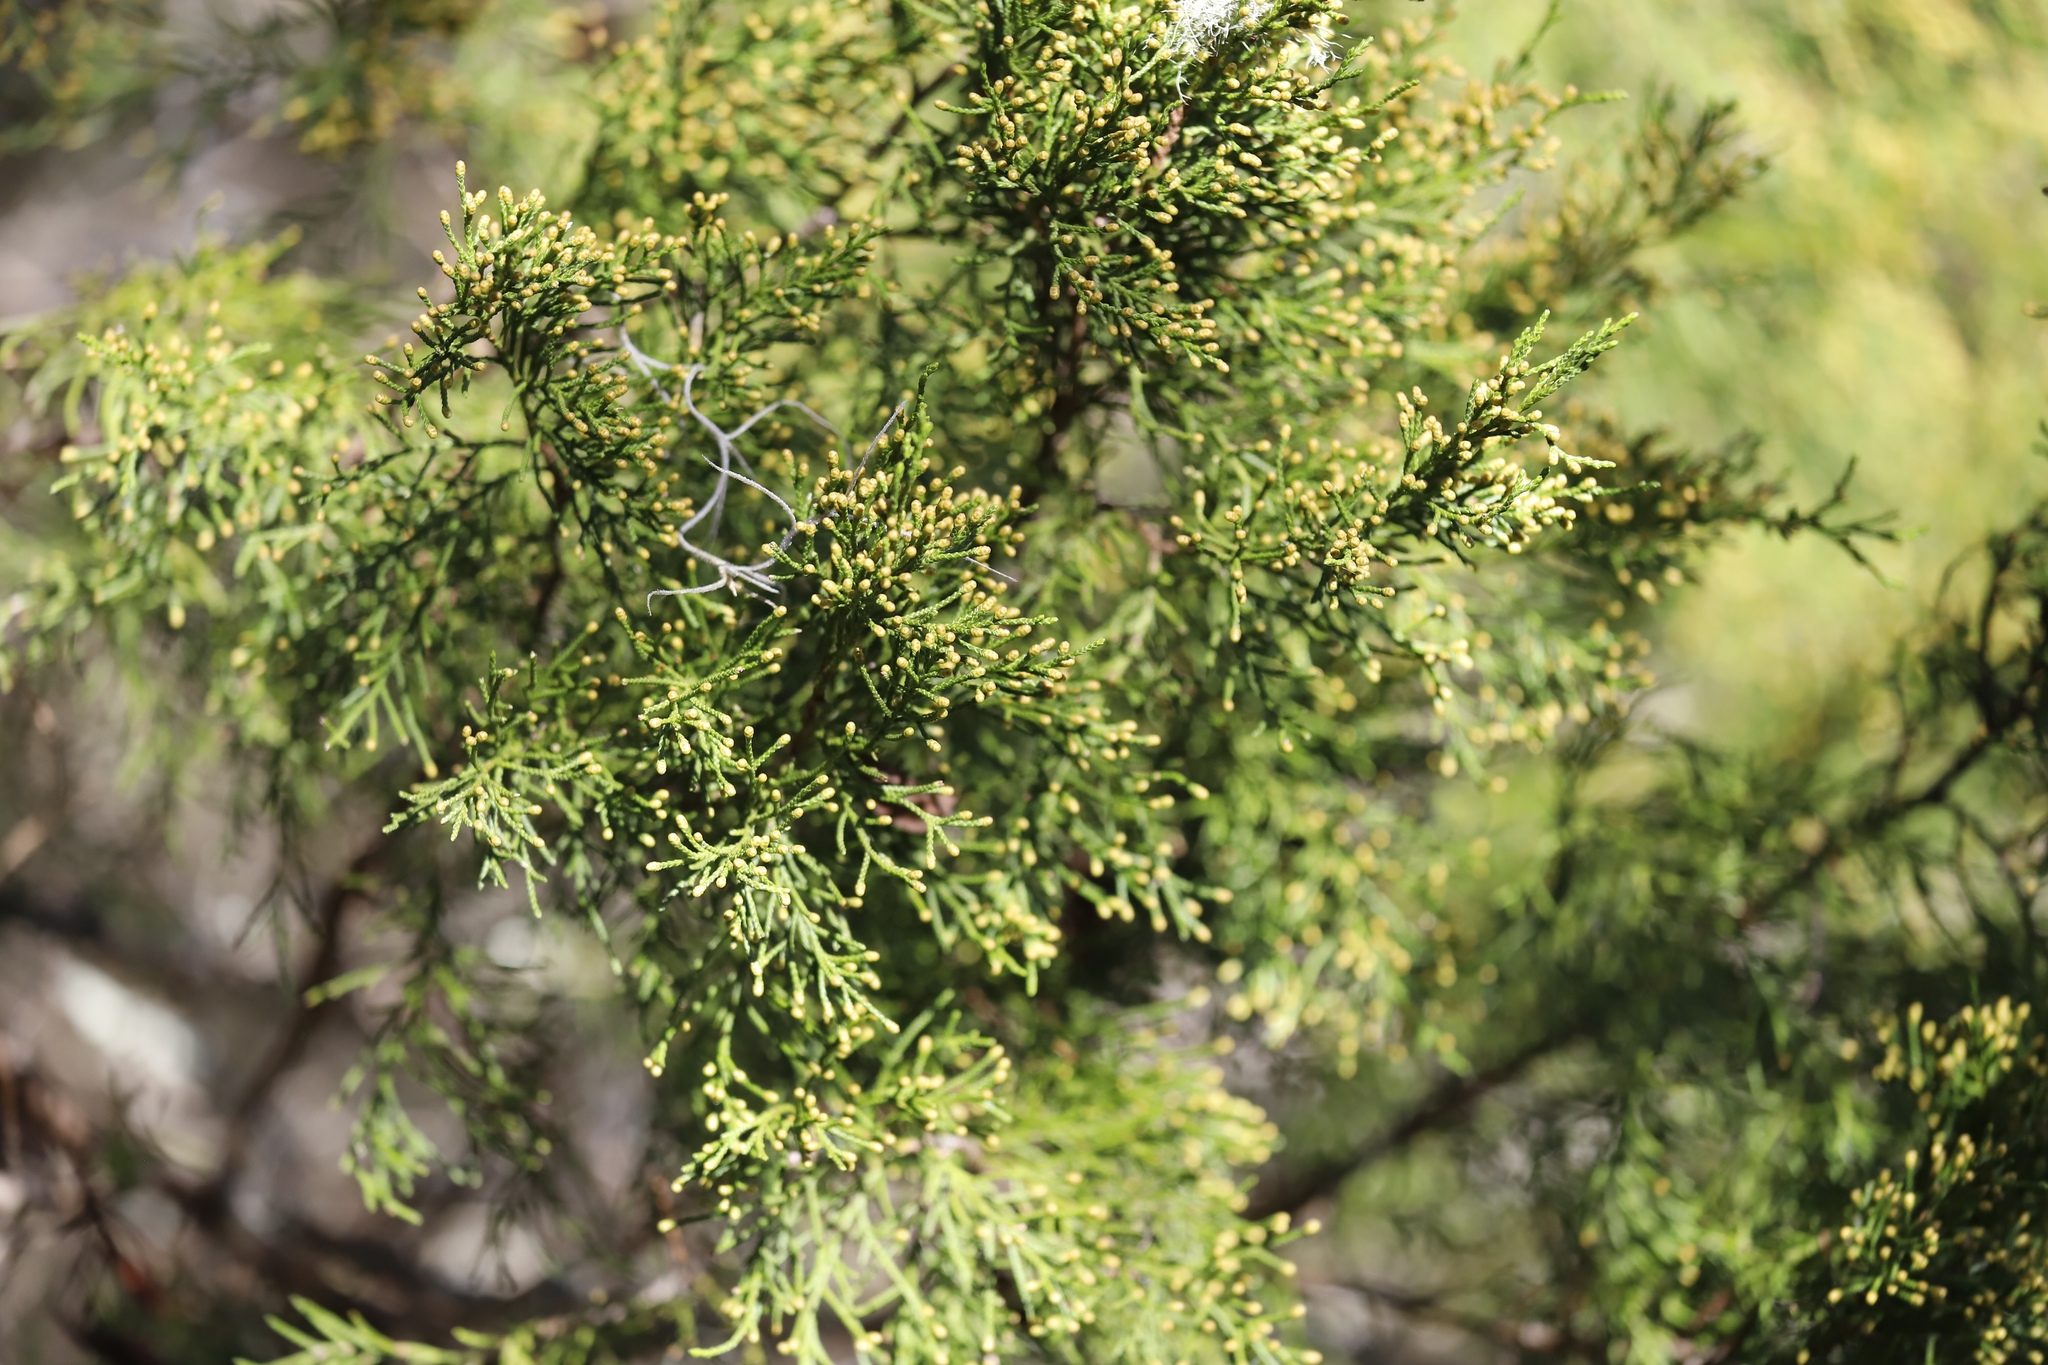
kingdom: Plantae
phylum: Tracheophyta
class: Pinopsida
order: Pinales
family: Cupressaceae
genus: Juniperus
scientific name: Juniperus virginiana
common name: Red juniper
